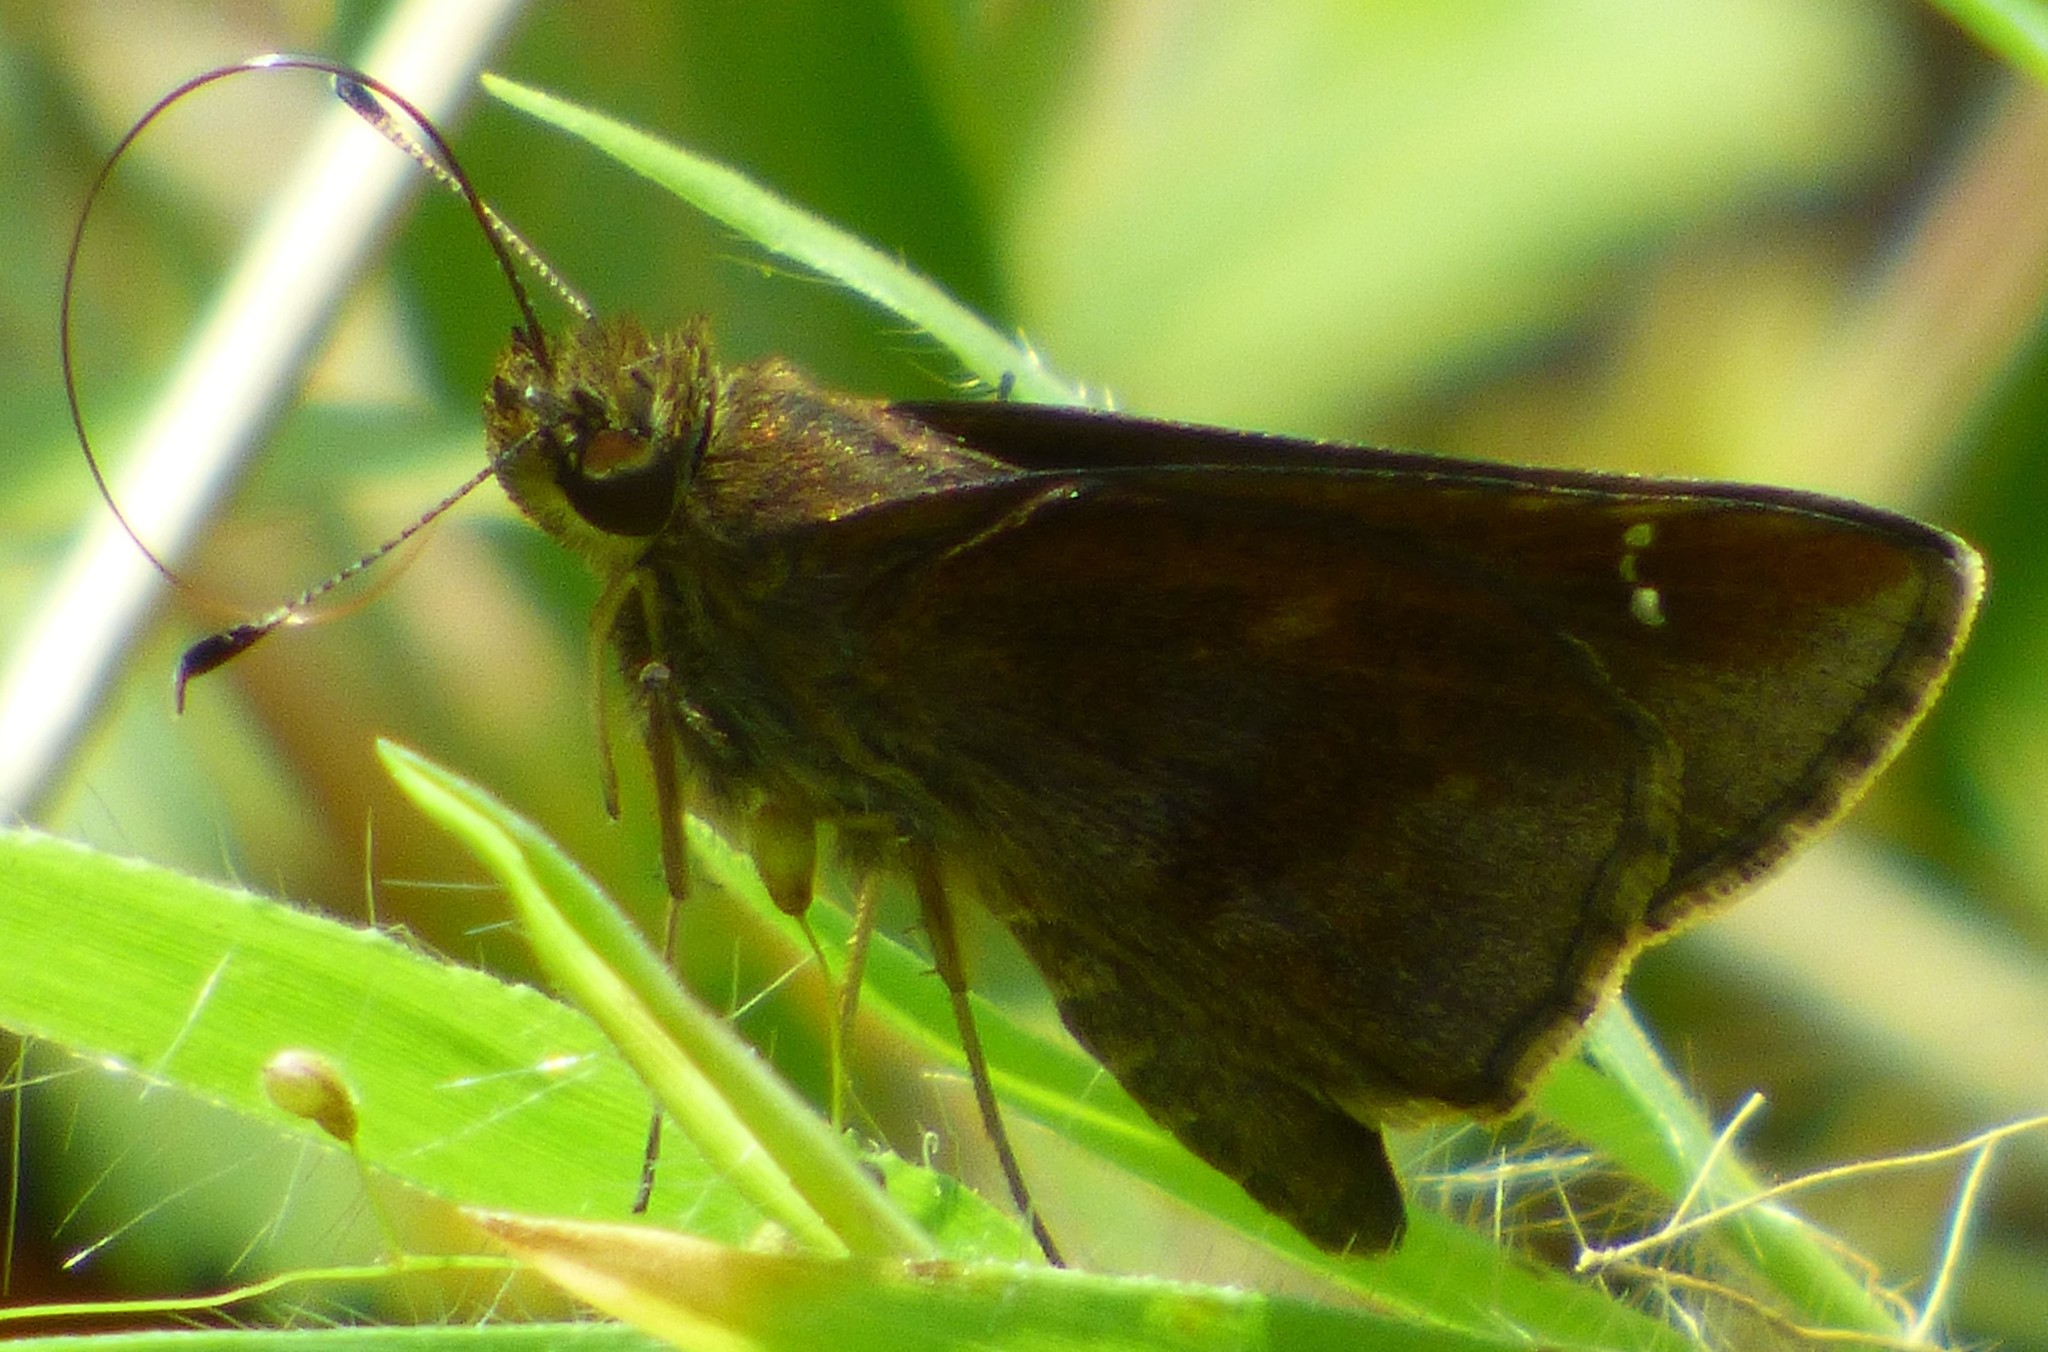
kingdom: Animalia
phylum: Arthropoda
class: Insecta
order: Lepidoptera
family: Hesperiidae
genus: Lerema
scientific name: Lerema accius
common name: Clouded skipper
